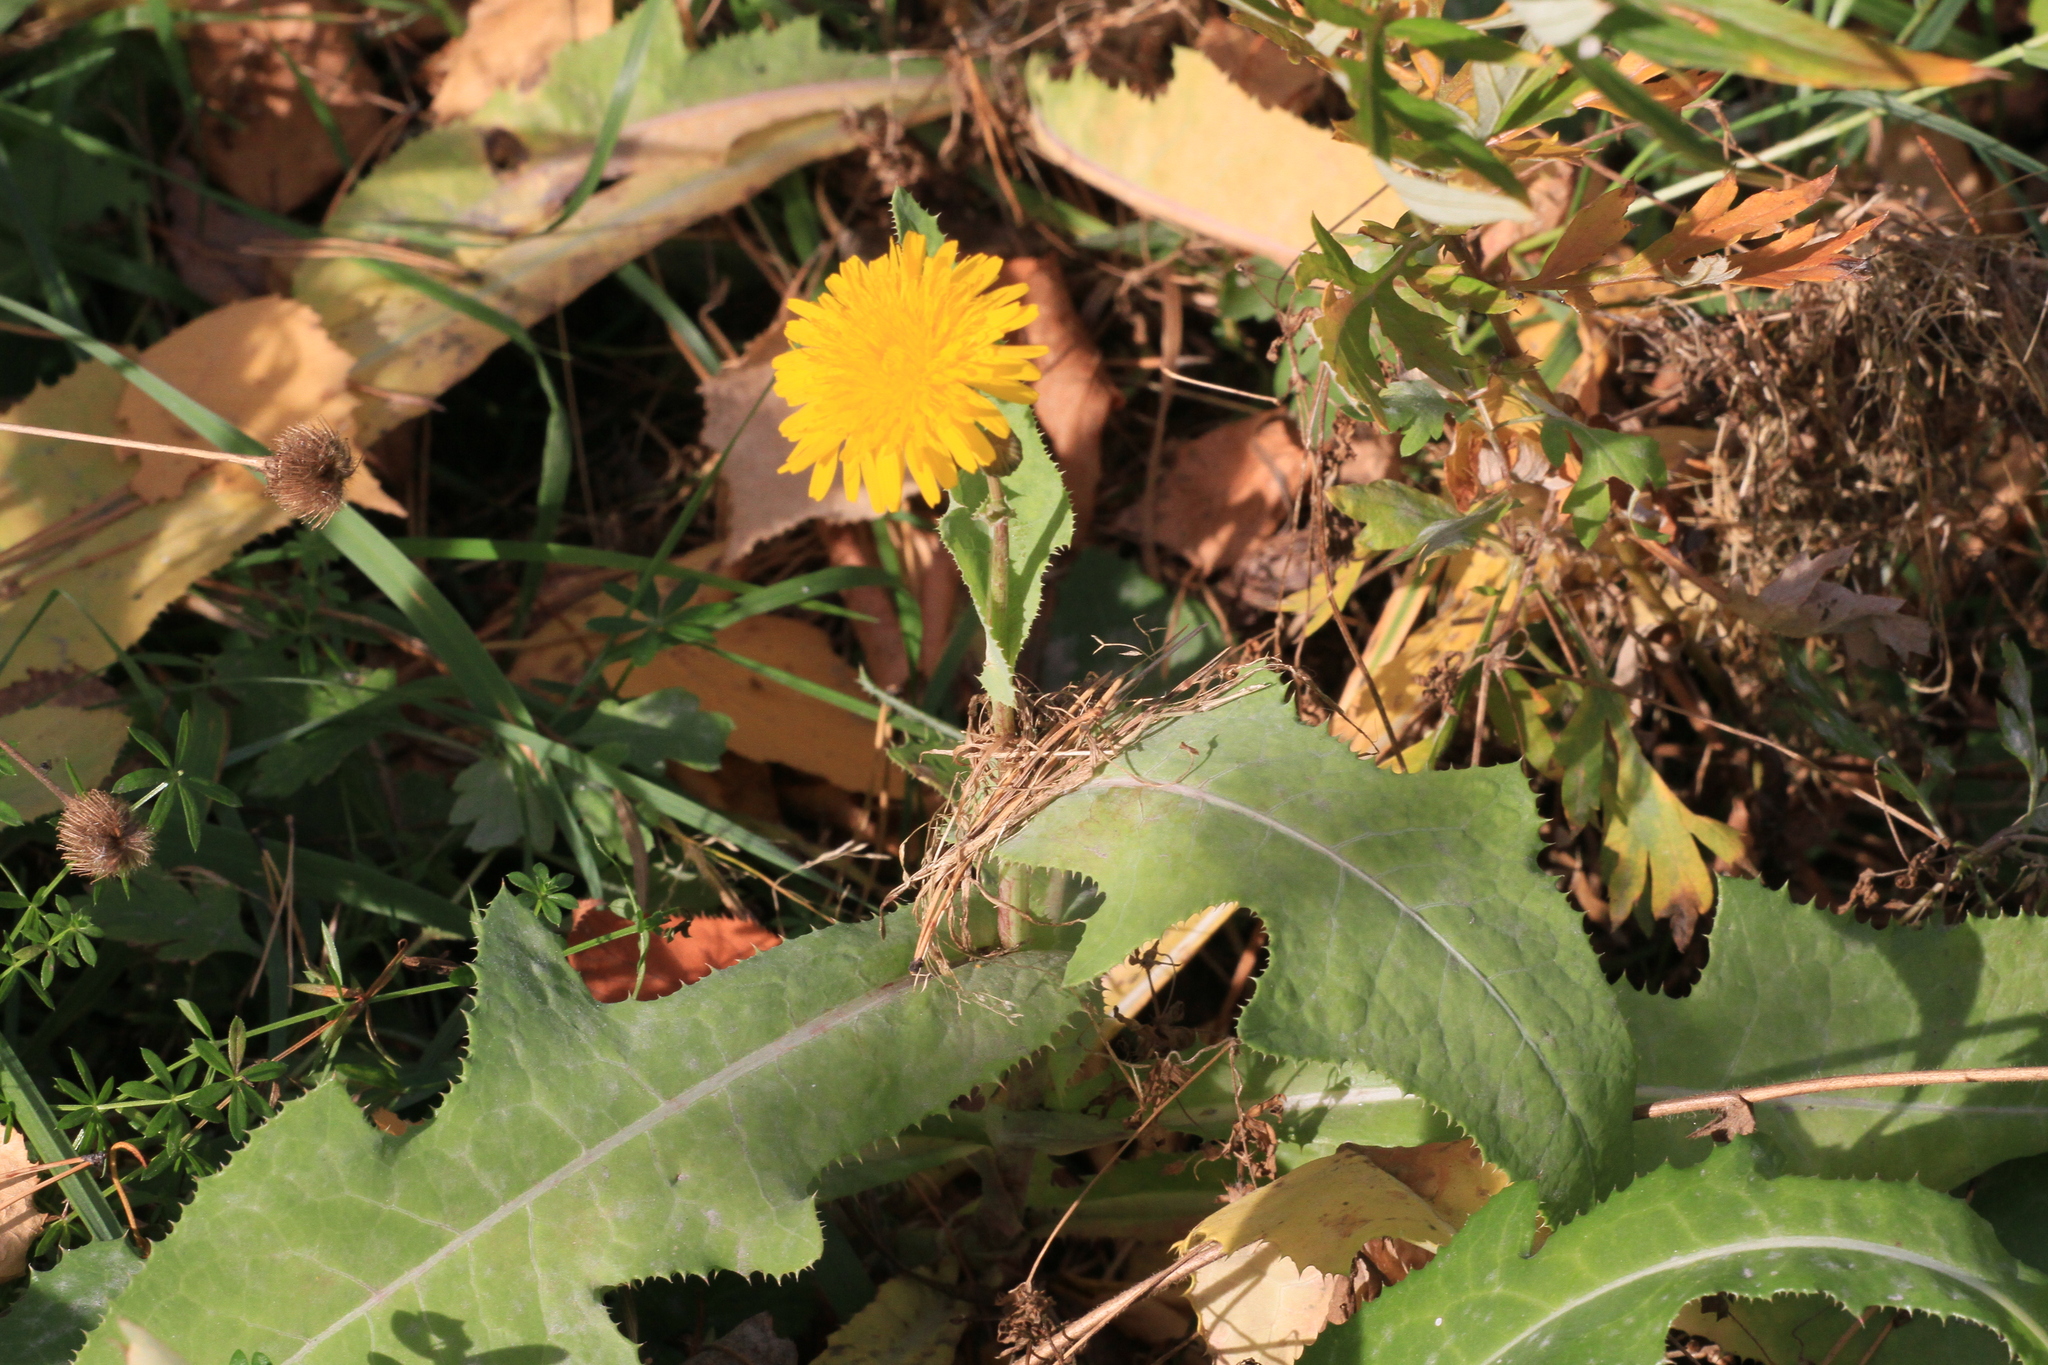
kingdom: Plantae
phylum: Tracheophyta
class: Magnoliopsida
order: Asterales
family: Asteraceae
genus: Sonchus
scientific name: Sonchus arvensis
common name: Perennial sow-thistle
